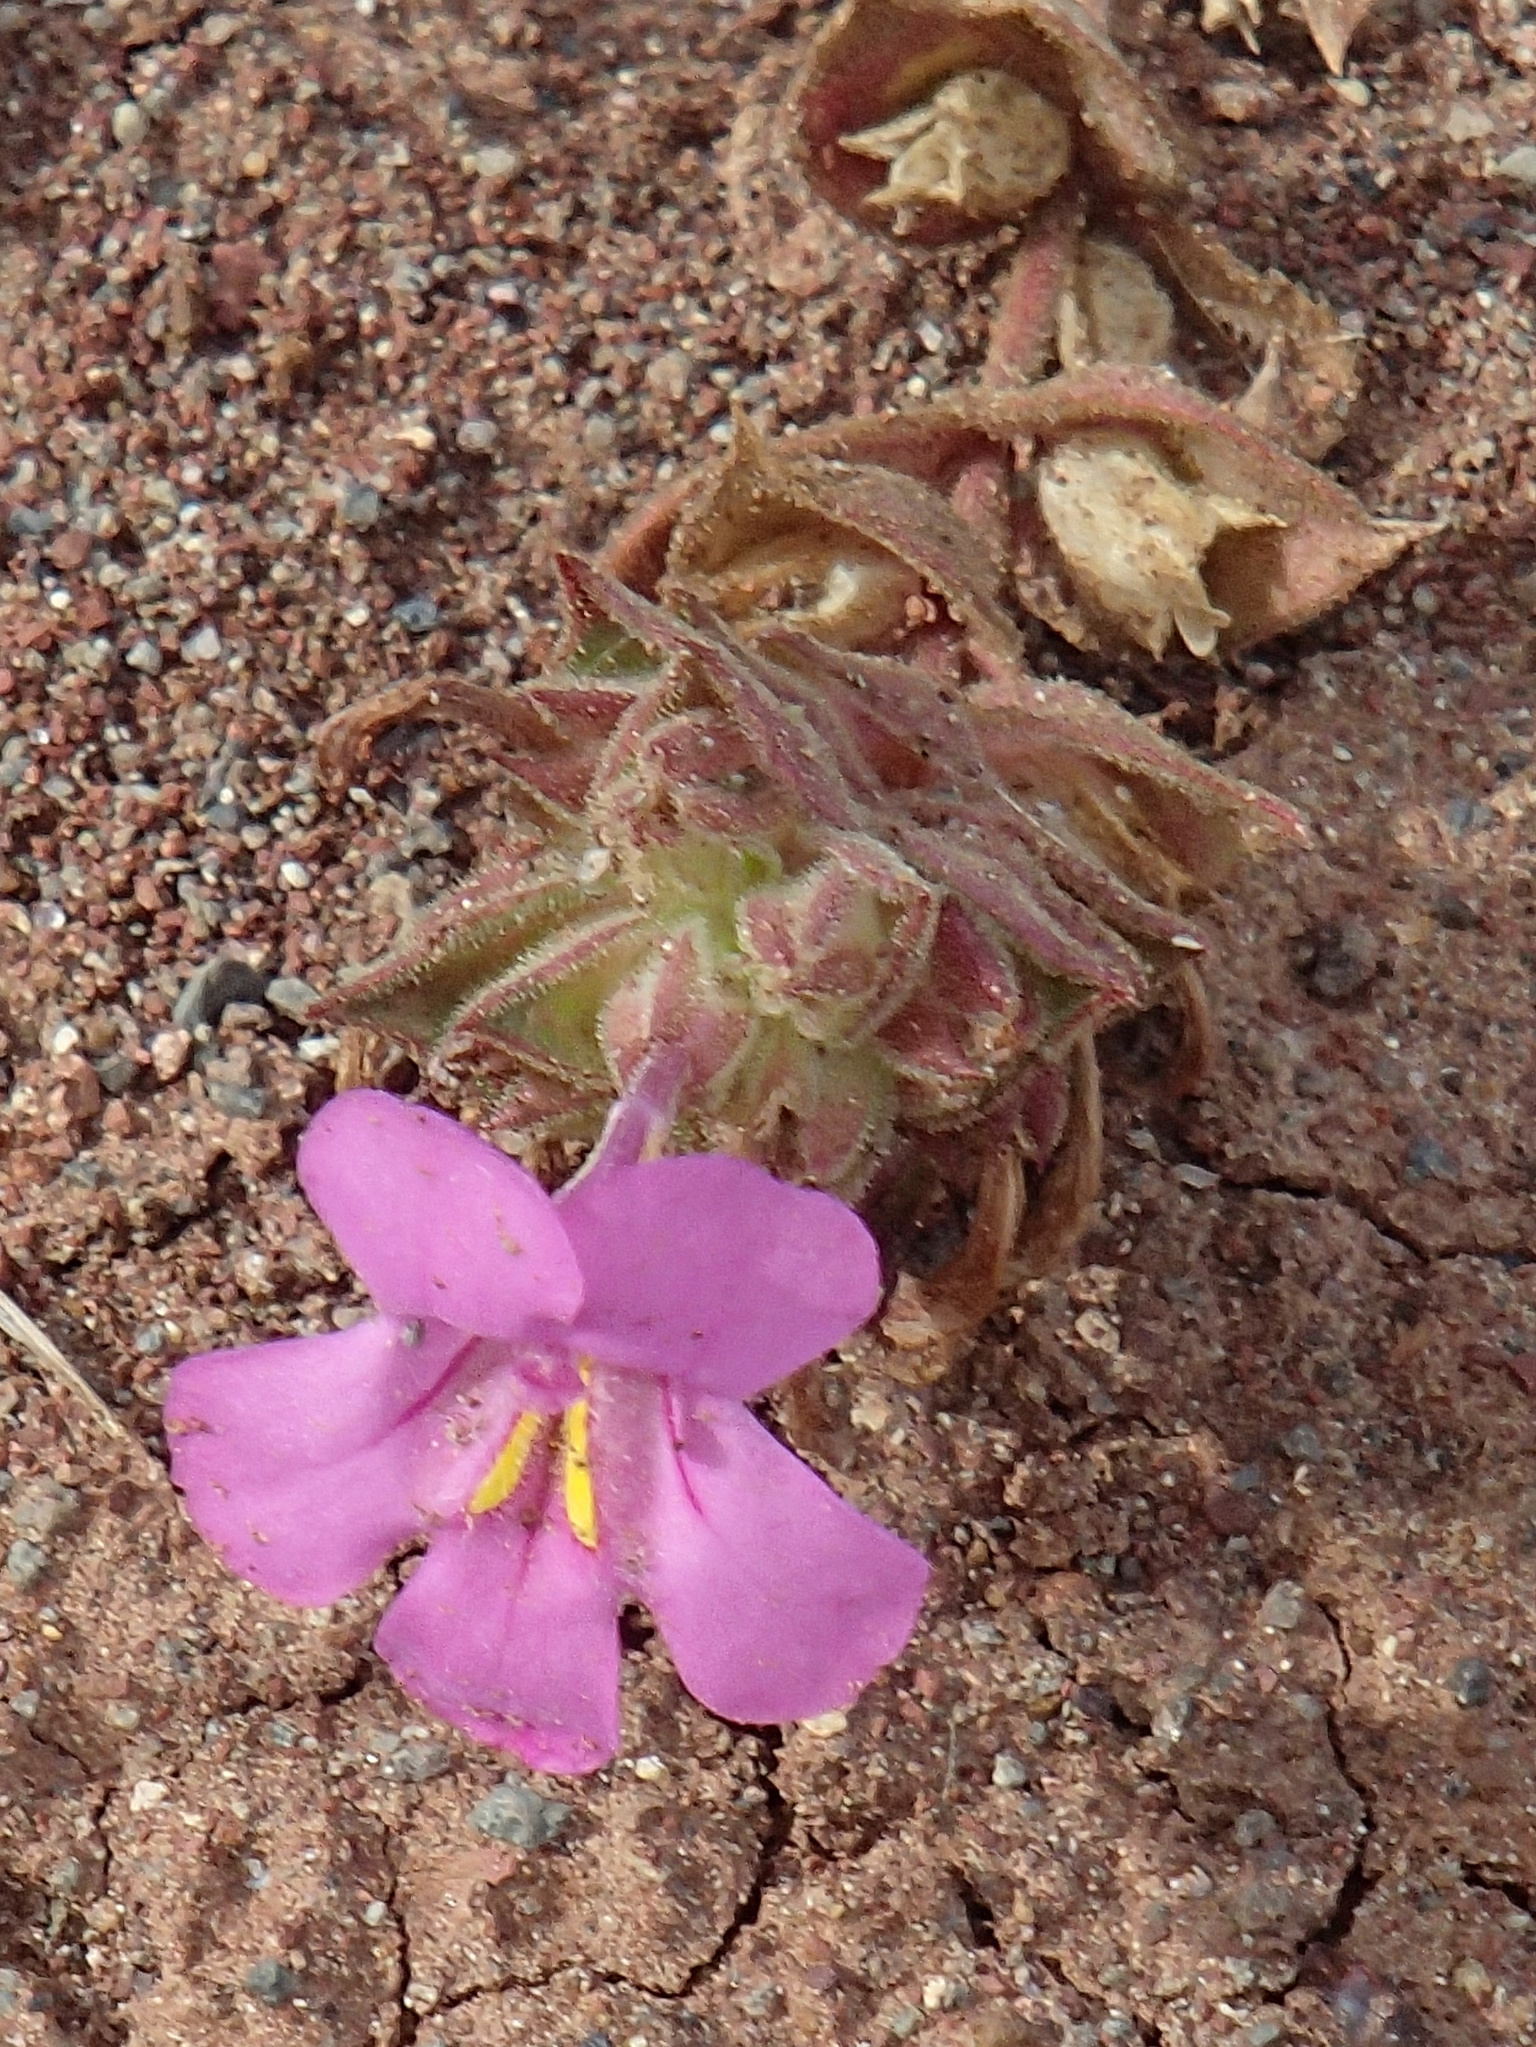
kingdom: Plantae
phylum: Tracheophyta
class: Magnoliopsida
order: Lamiales
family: Phrymaceae
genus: Diplacus
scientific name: Diplacus cusickioides
